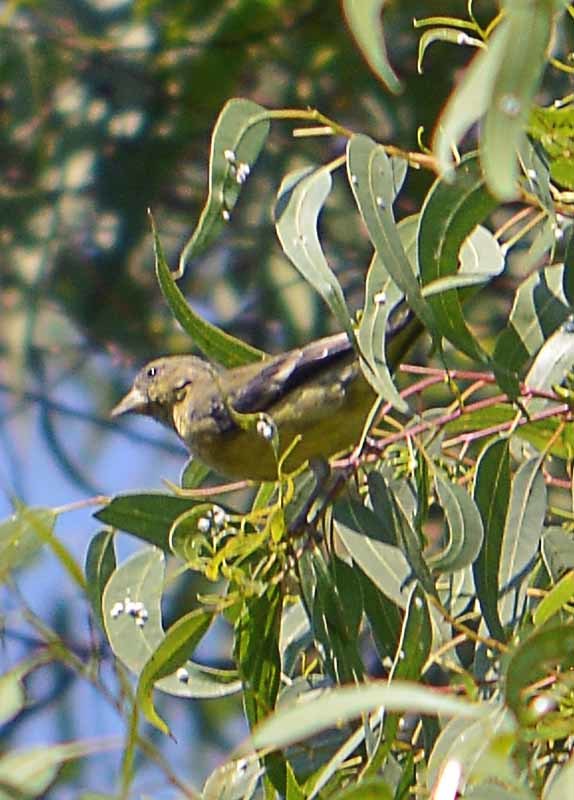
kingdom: Animalia
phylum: Chordata
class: Aves
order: Passeriformes
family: Icteridae
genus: Icterus
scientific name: Icterus parisorum
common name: Scott's oriole
